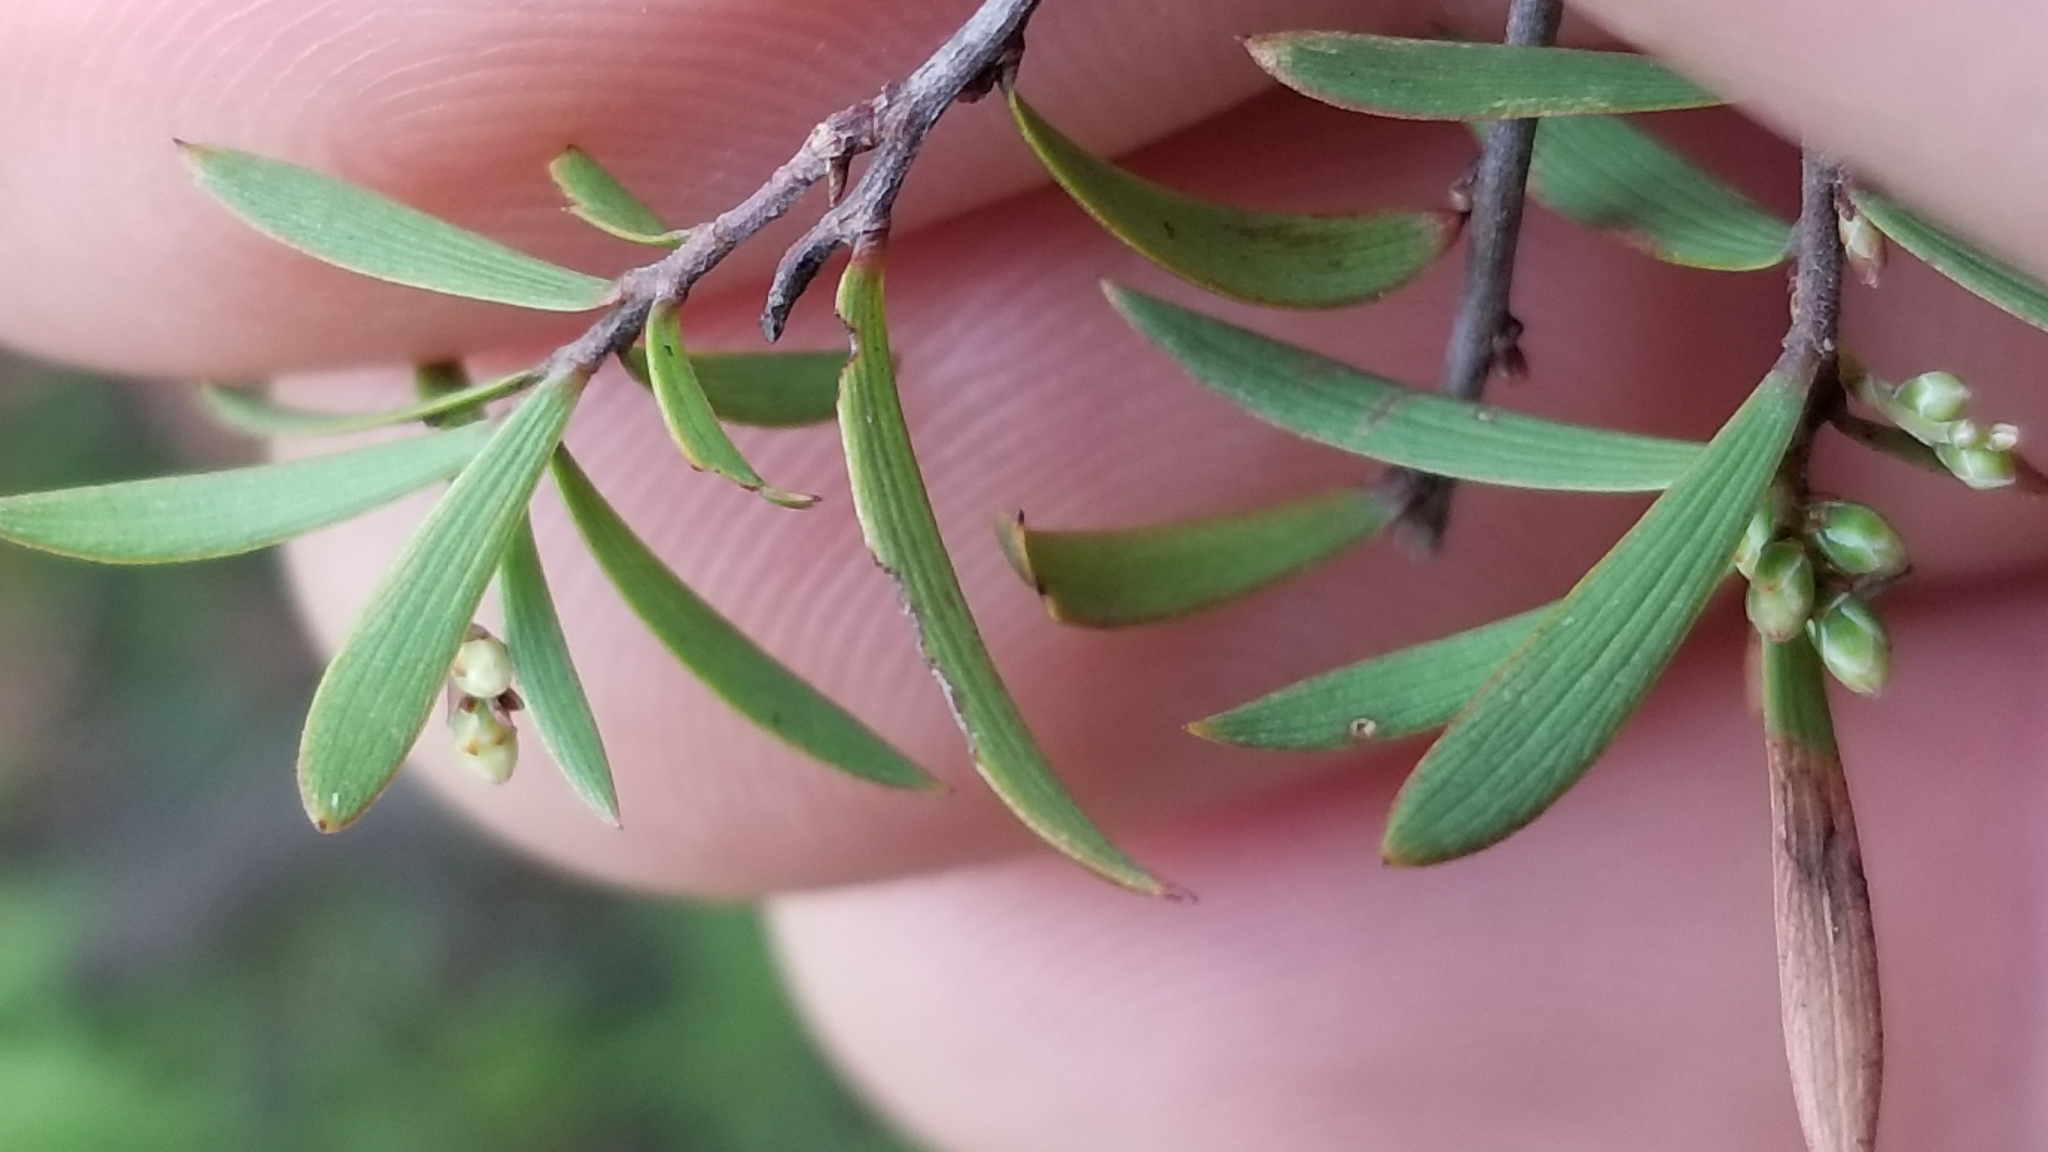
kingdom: Plantae
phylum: Tracheophyta
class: Magnoliopsida
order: Ericales
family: Ericaceae
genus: Leucopogon
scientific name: Leucopogon fasciculatus
